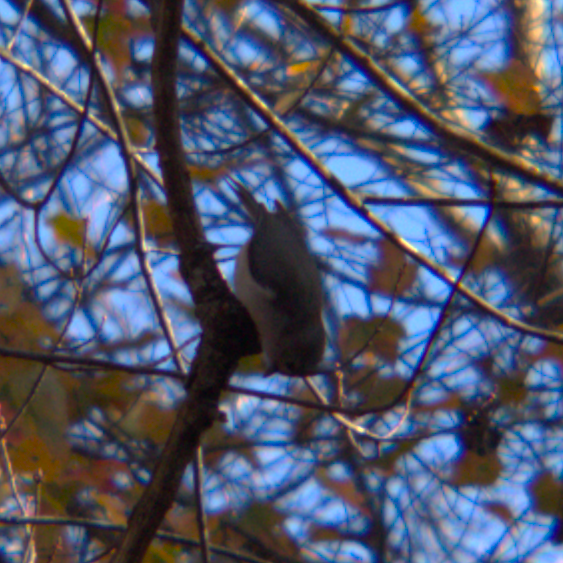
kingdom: Animalia
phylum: Chordata
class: Aves
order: Passeriformes
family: Paridae
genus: Baeolophus
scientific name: Baeolophus bicolor
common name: Tufted titmouse
